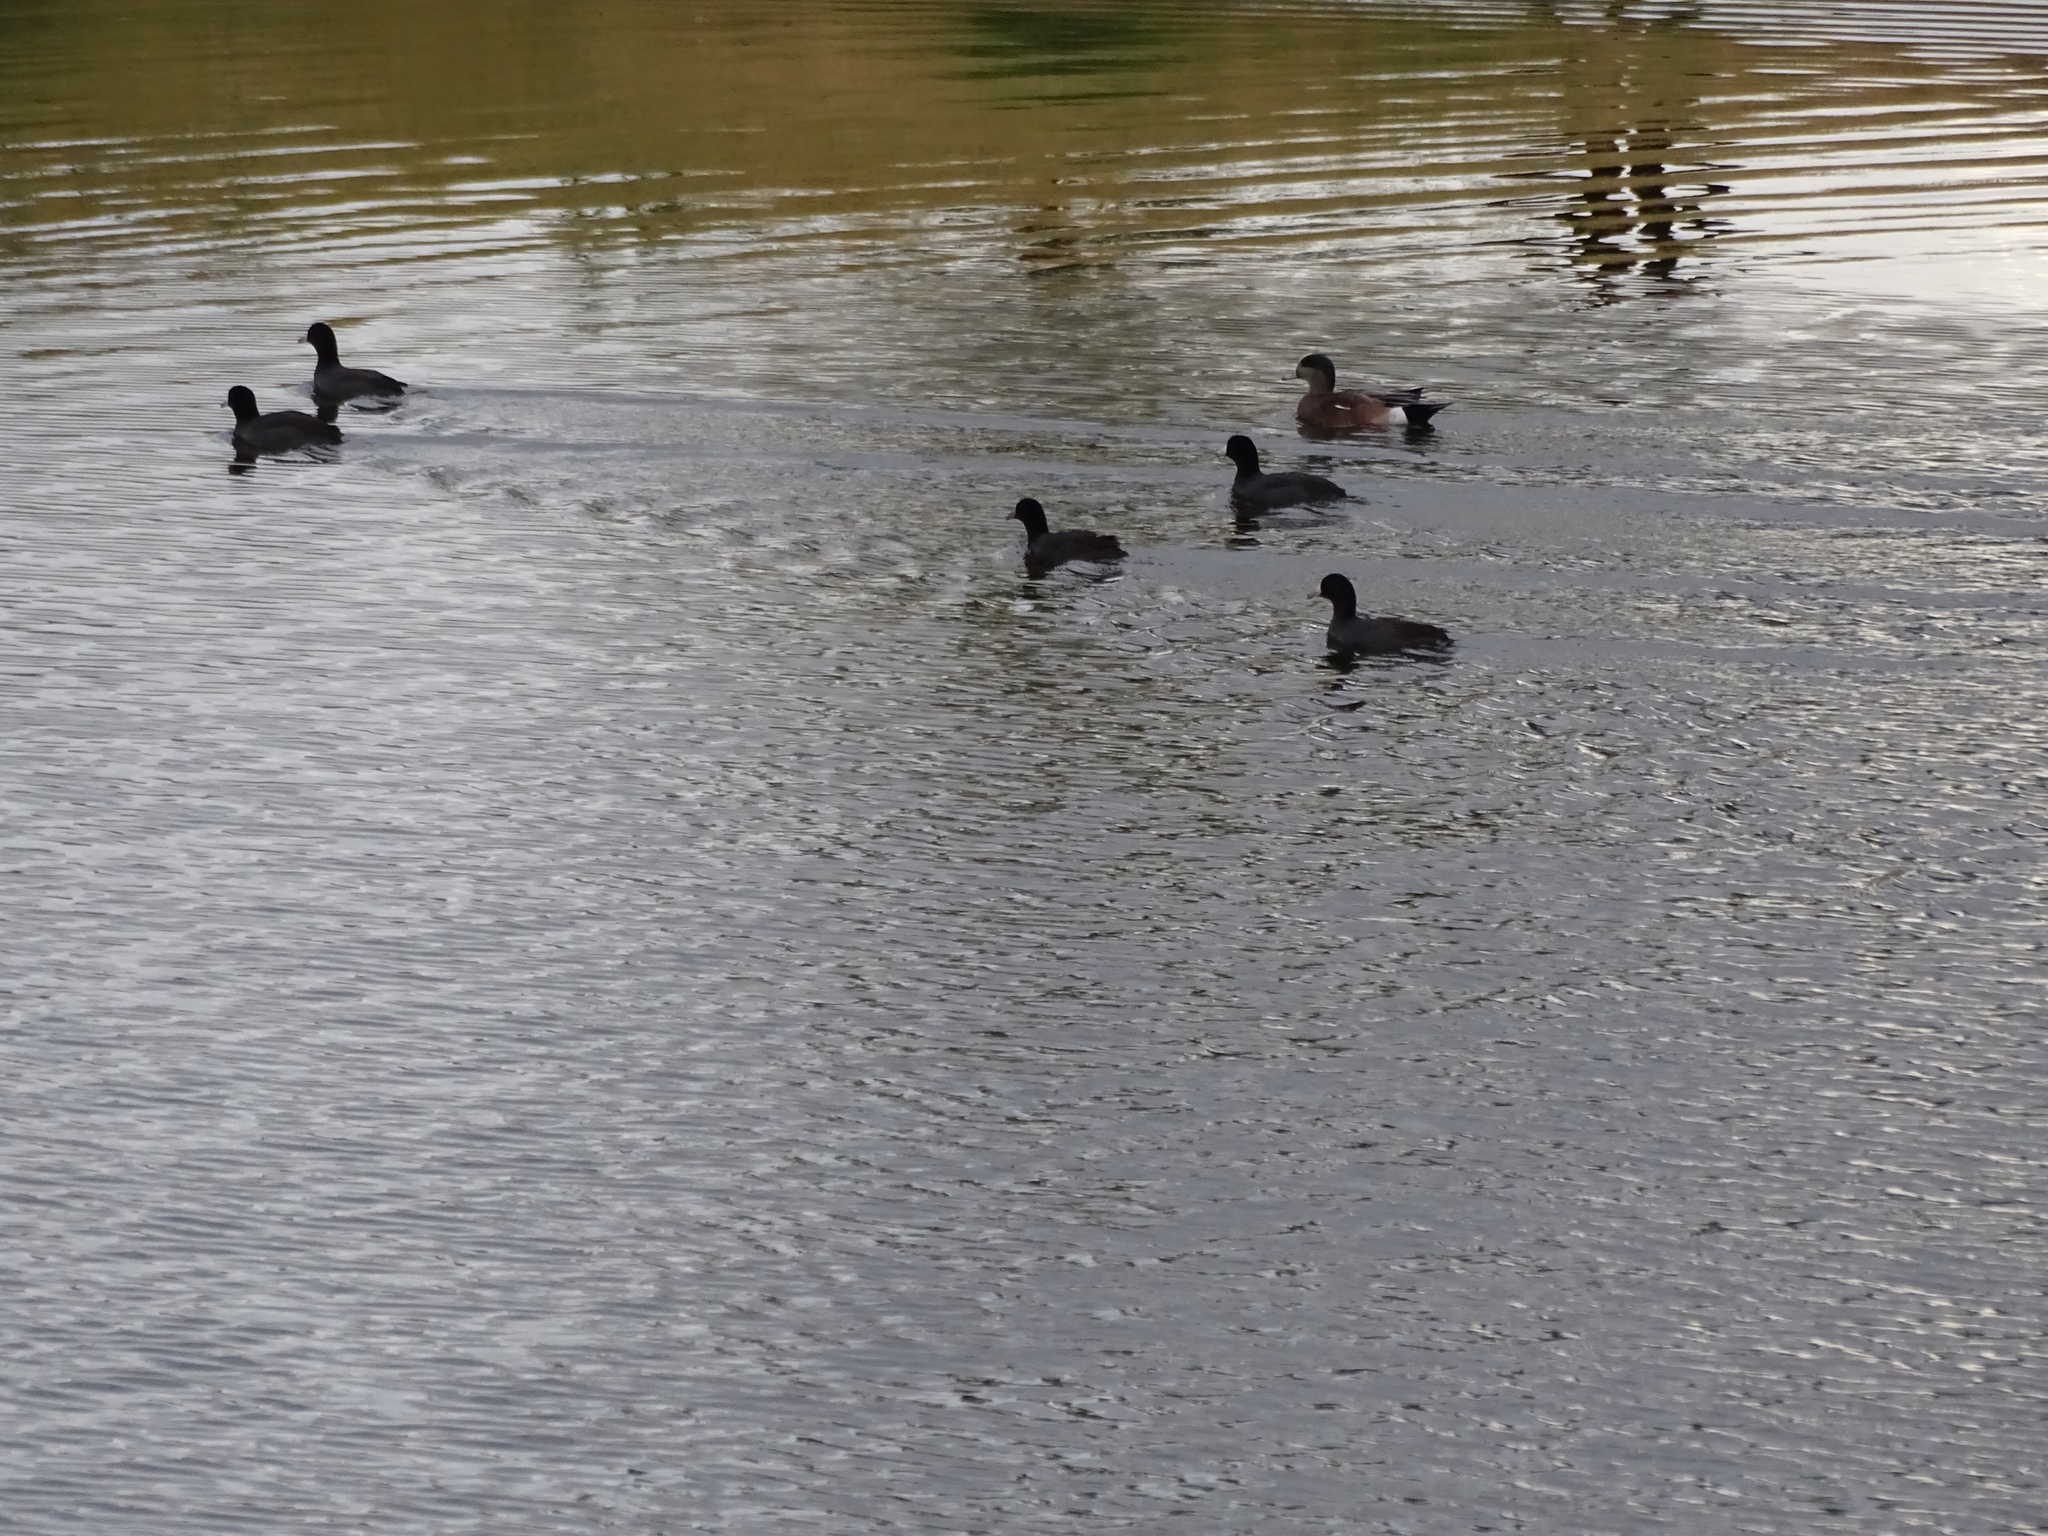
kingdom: Animalia
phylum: Chordata
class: Aves
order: Gruiformes
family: Rallidae
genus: Fulica
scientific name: Fulica americana
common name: American coot
